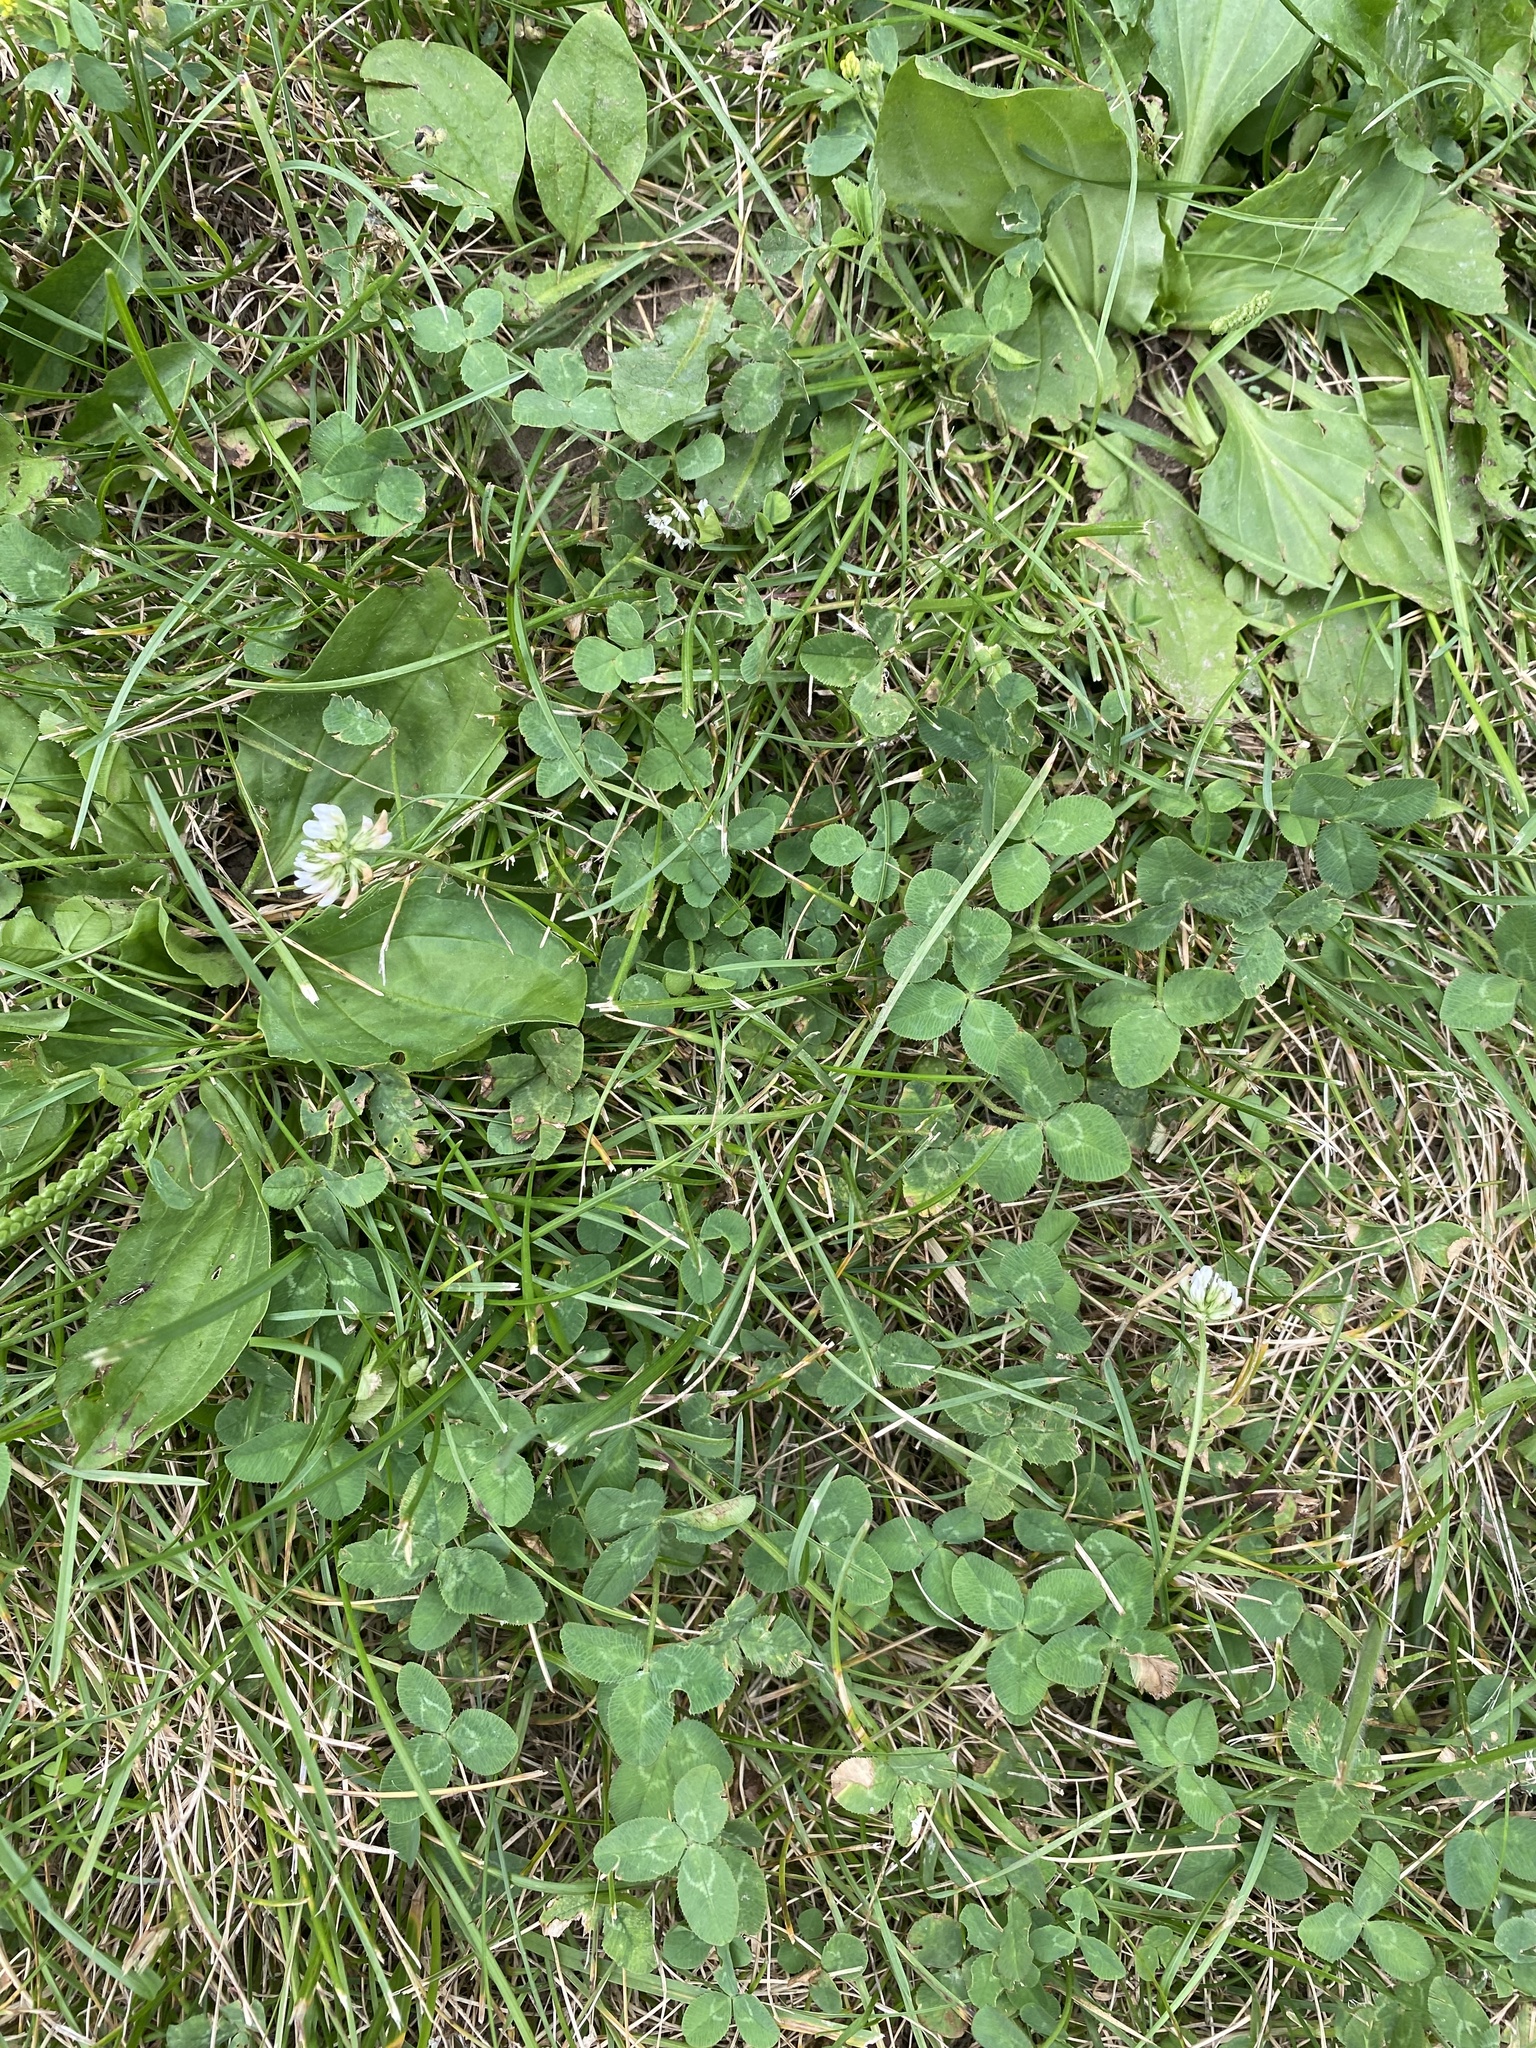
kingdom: Plantae
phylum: Tracheophyta
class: Magnoliopsida
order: Fabales
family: Fabaceae
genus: Trifolium
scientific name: Trifolium repens
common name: White clover
